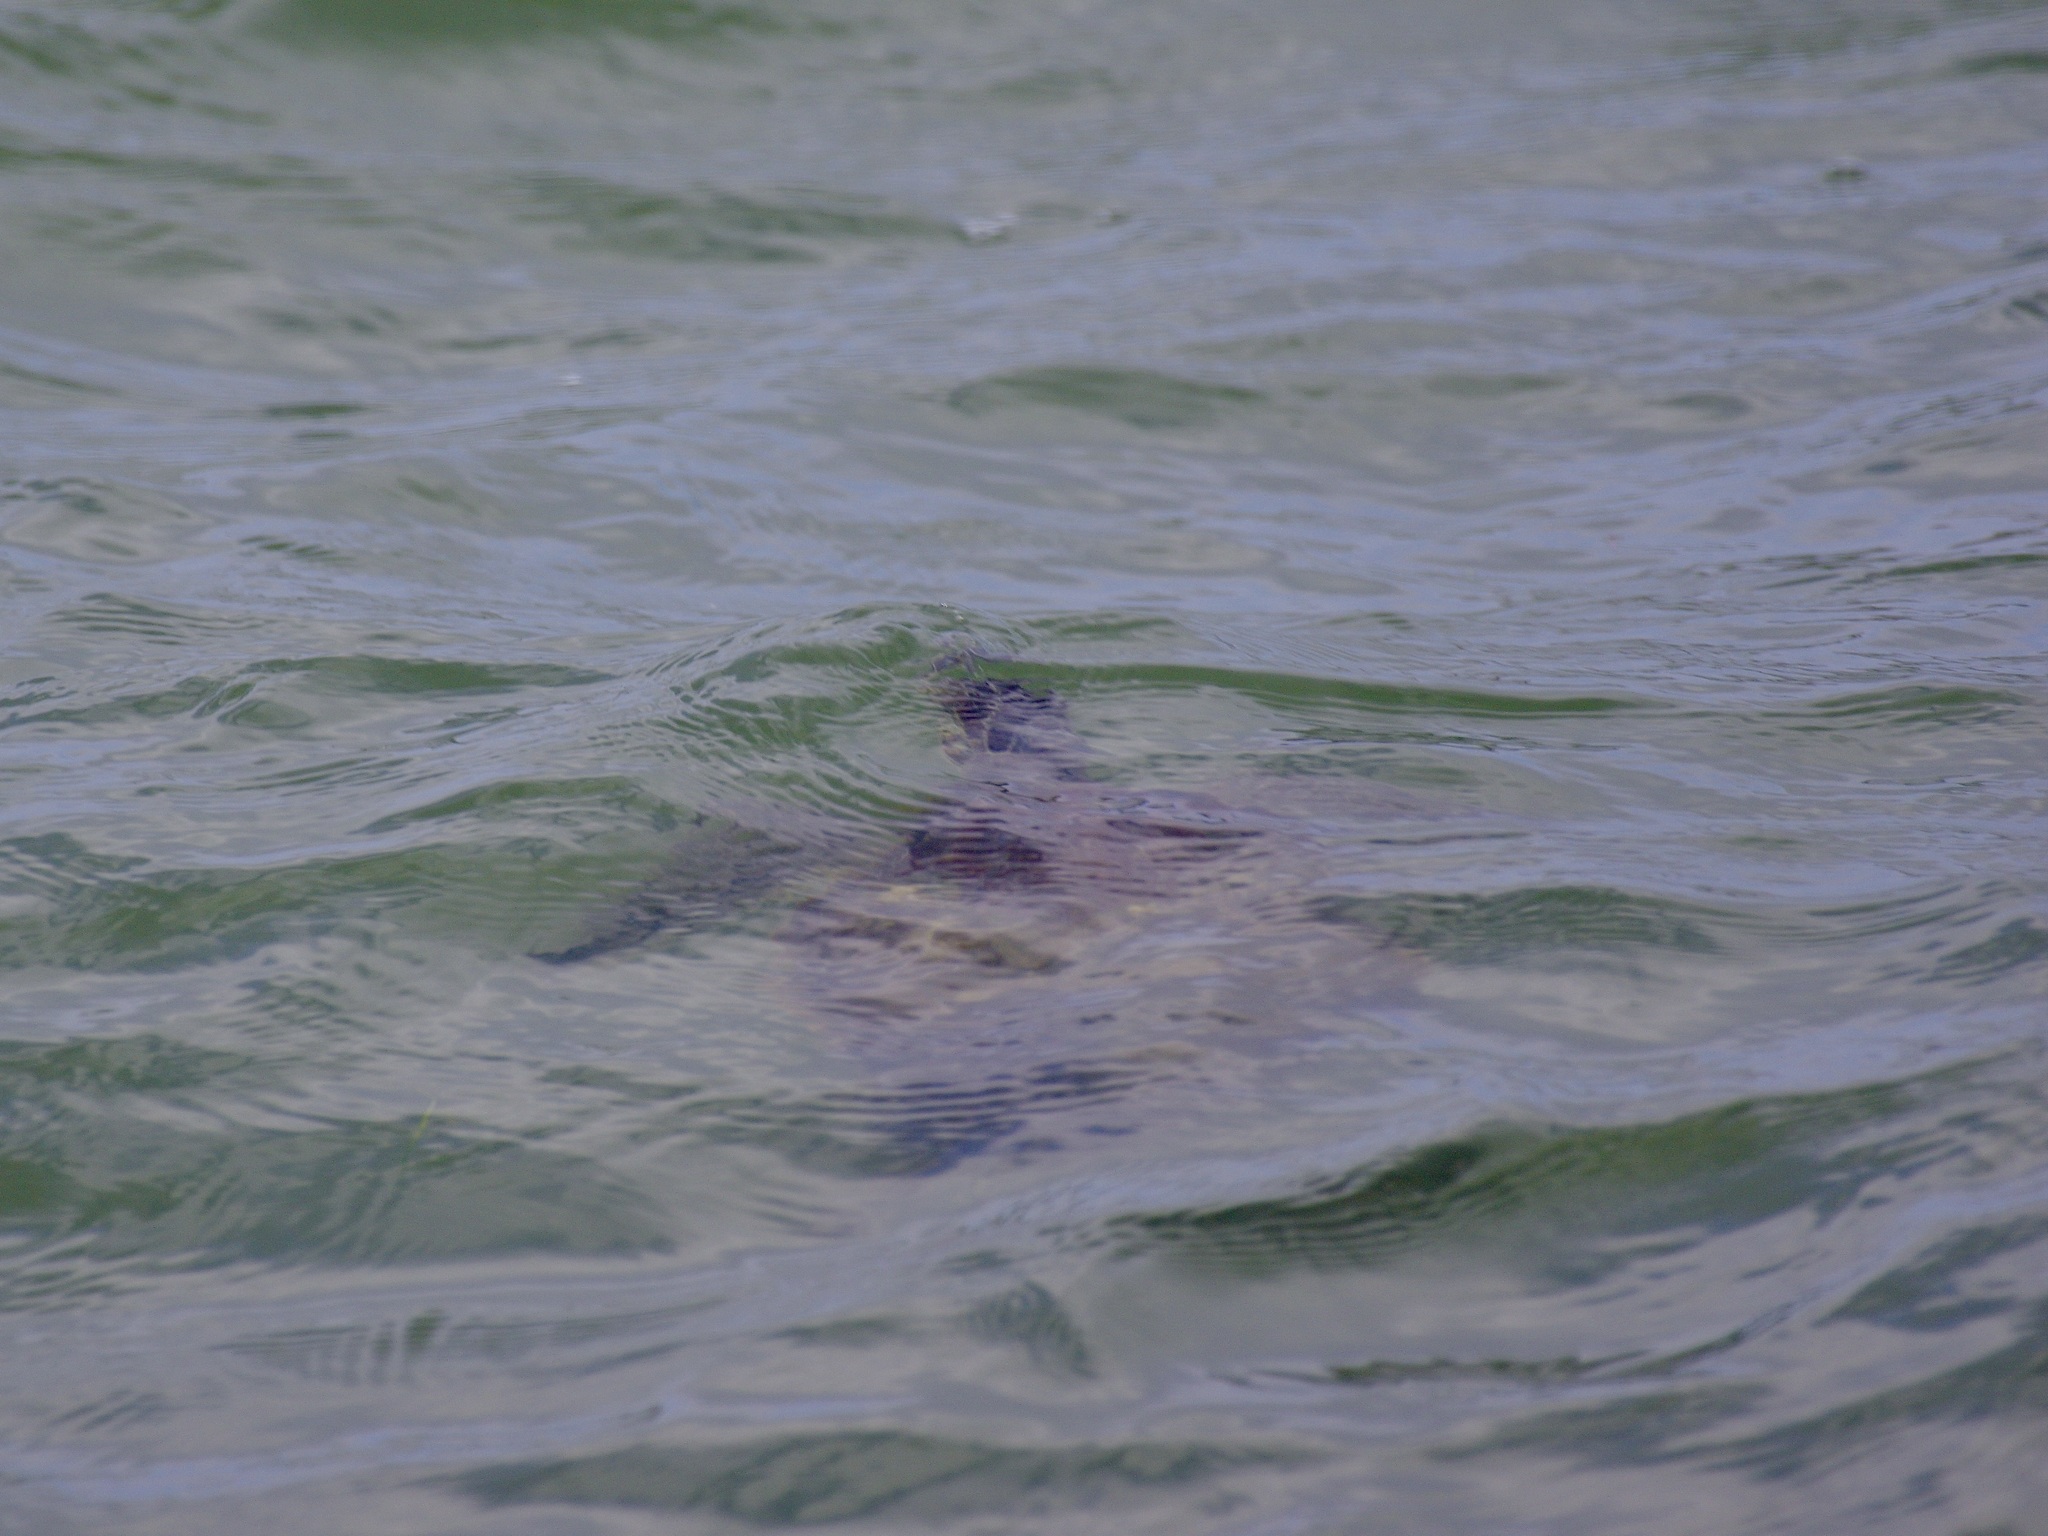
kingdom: Animalia
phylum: Chordata
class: Testudines
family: Cheloniidae
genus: Chelonia
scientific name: Chelonia mydas
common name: Green turtle
